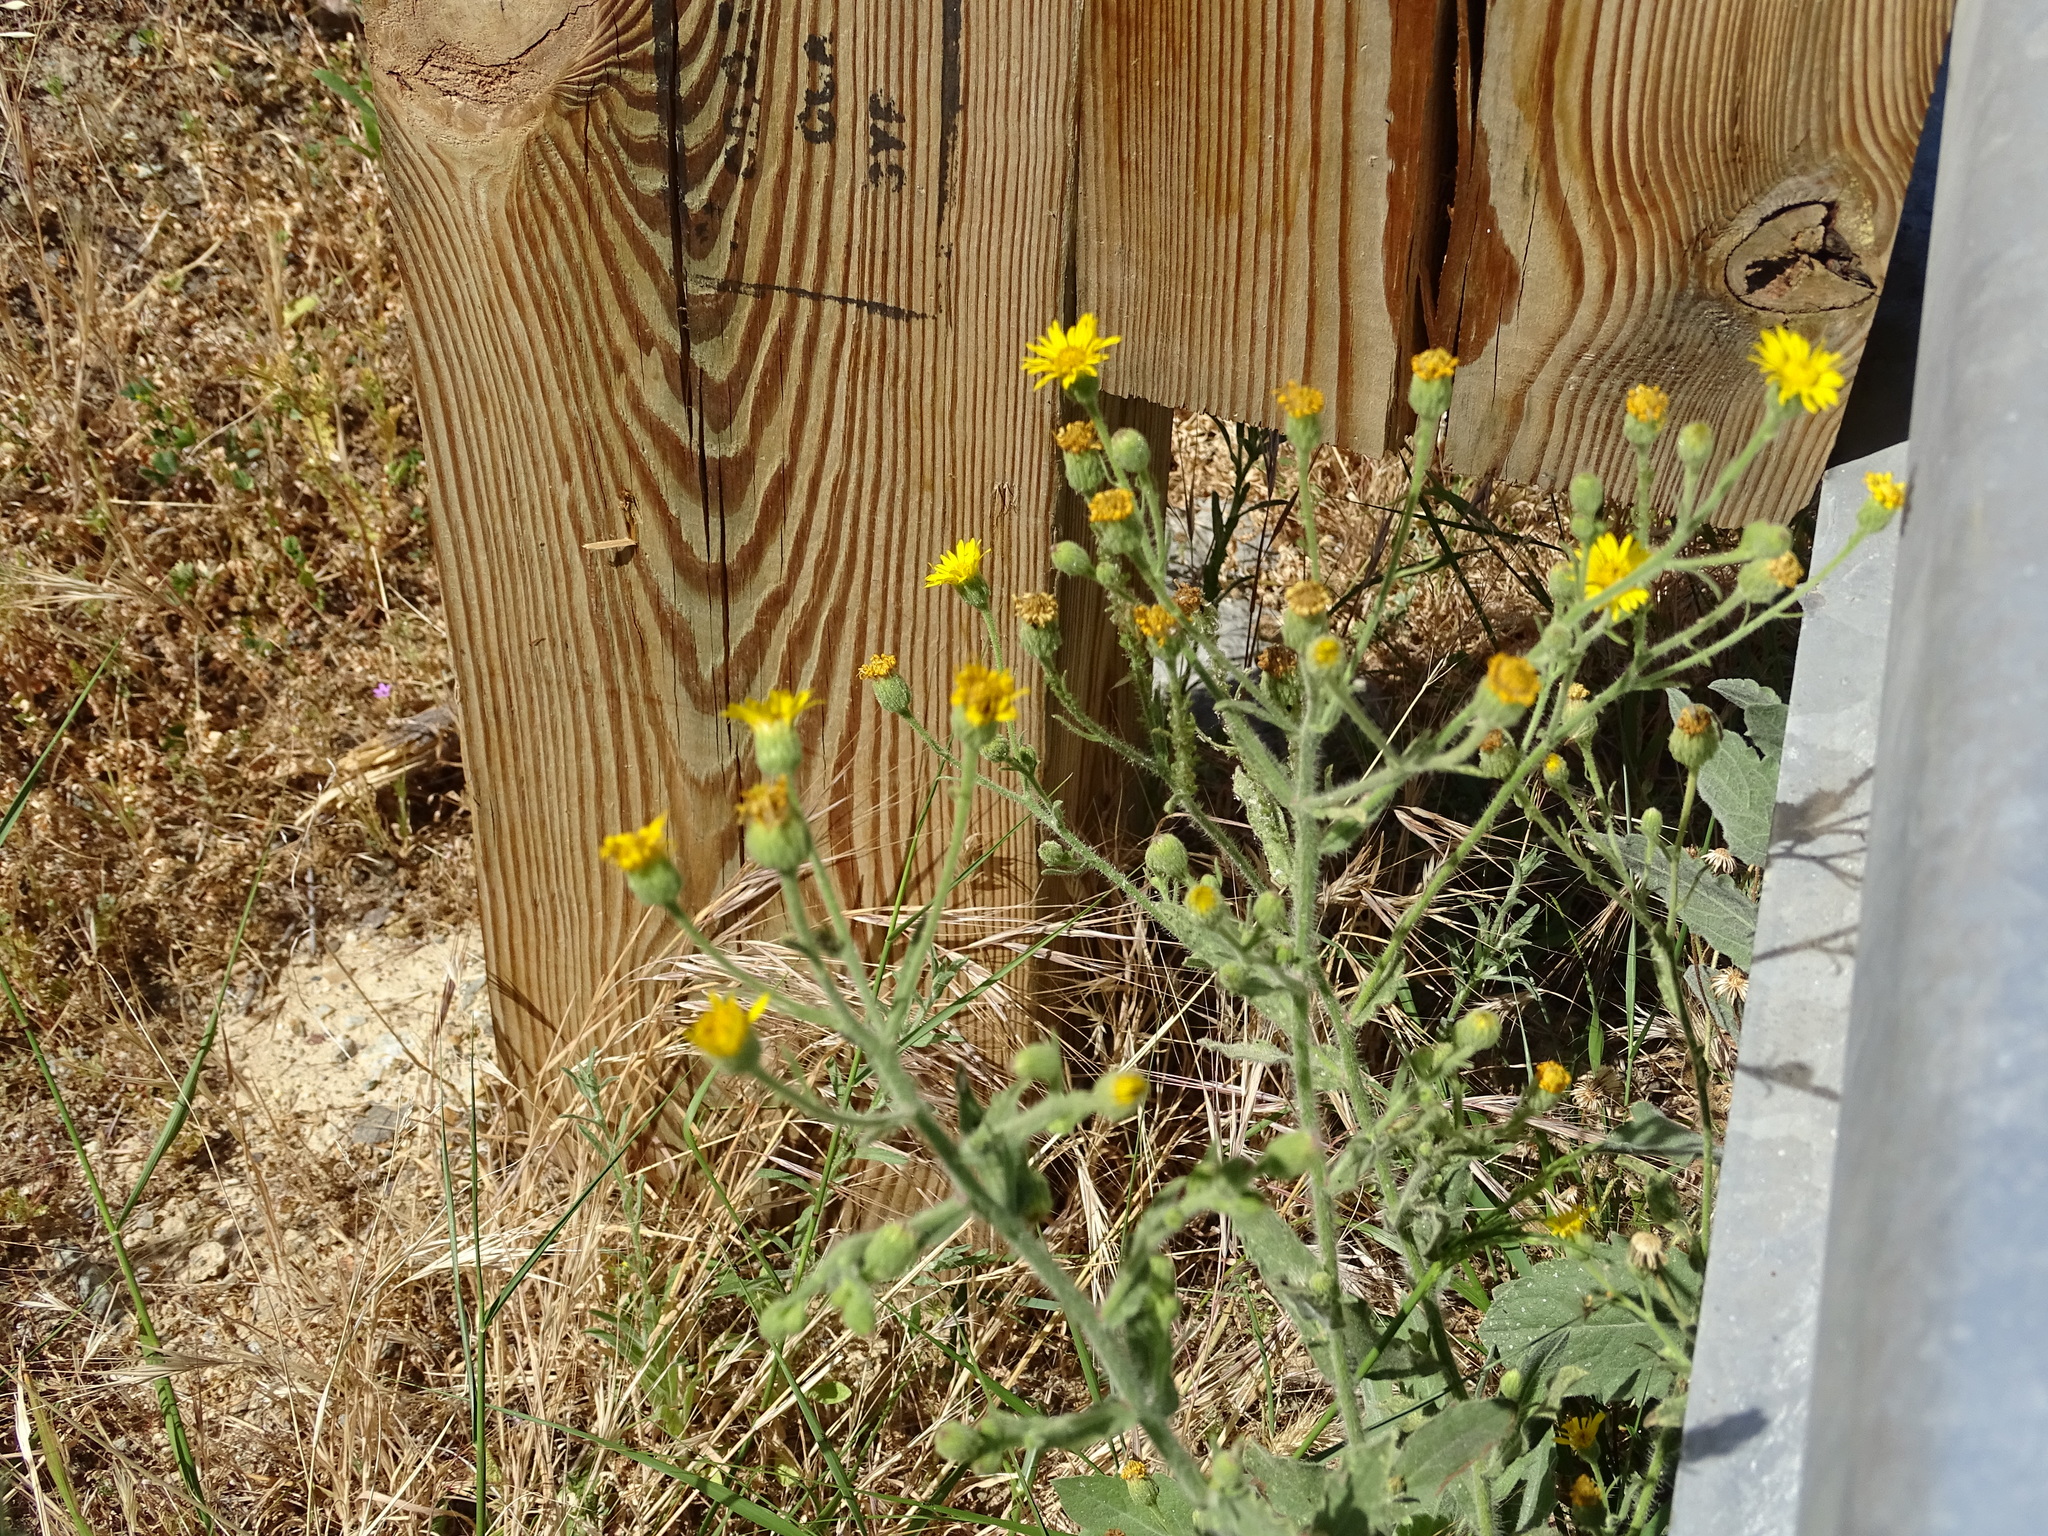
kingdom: Plantae
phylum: Tracheophyta
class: Magnoliopsida
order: Asterales
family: Asteraceae
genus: Heterotheca
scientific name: Heterotheca grandiflora
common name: Telegraphweed
